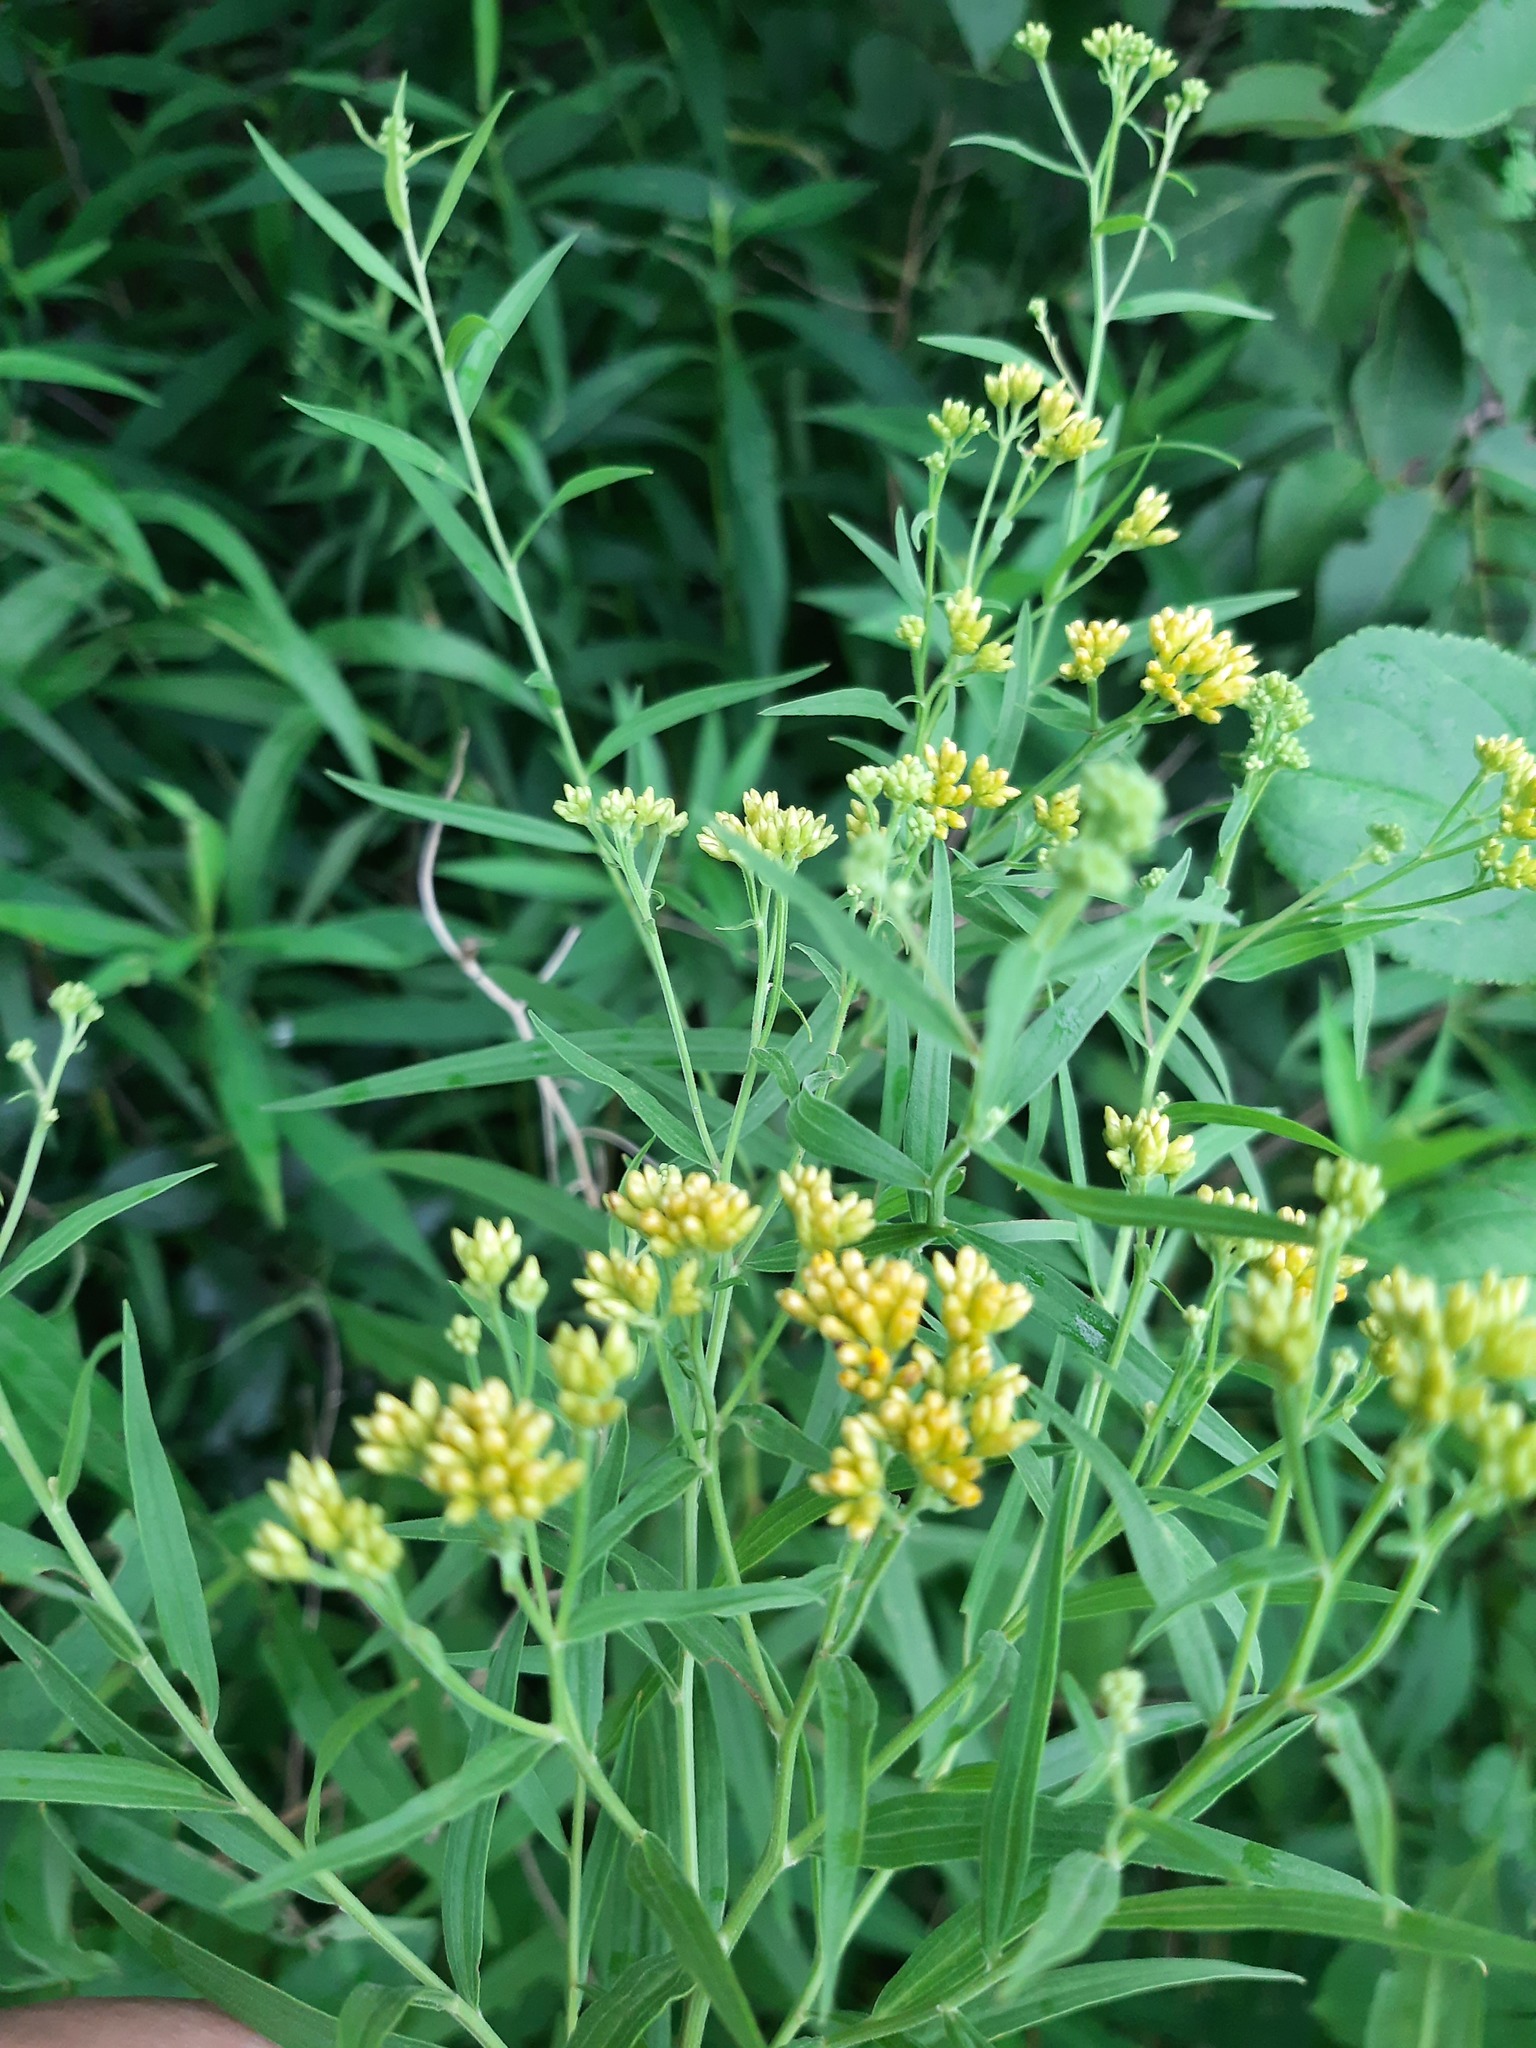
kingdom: Plantae
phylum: Tracheophyta
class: Magnoliopsida
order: Asterales
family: Asteraceae
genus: Euthamia
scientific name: Euthamia graminifolia
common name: Common goldentop
